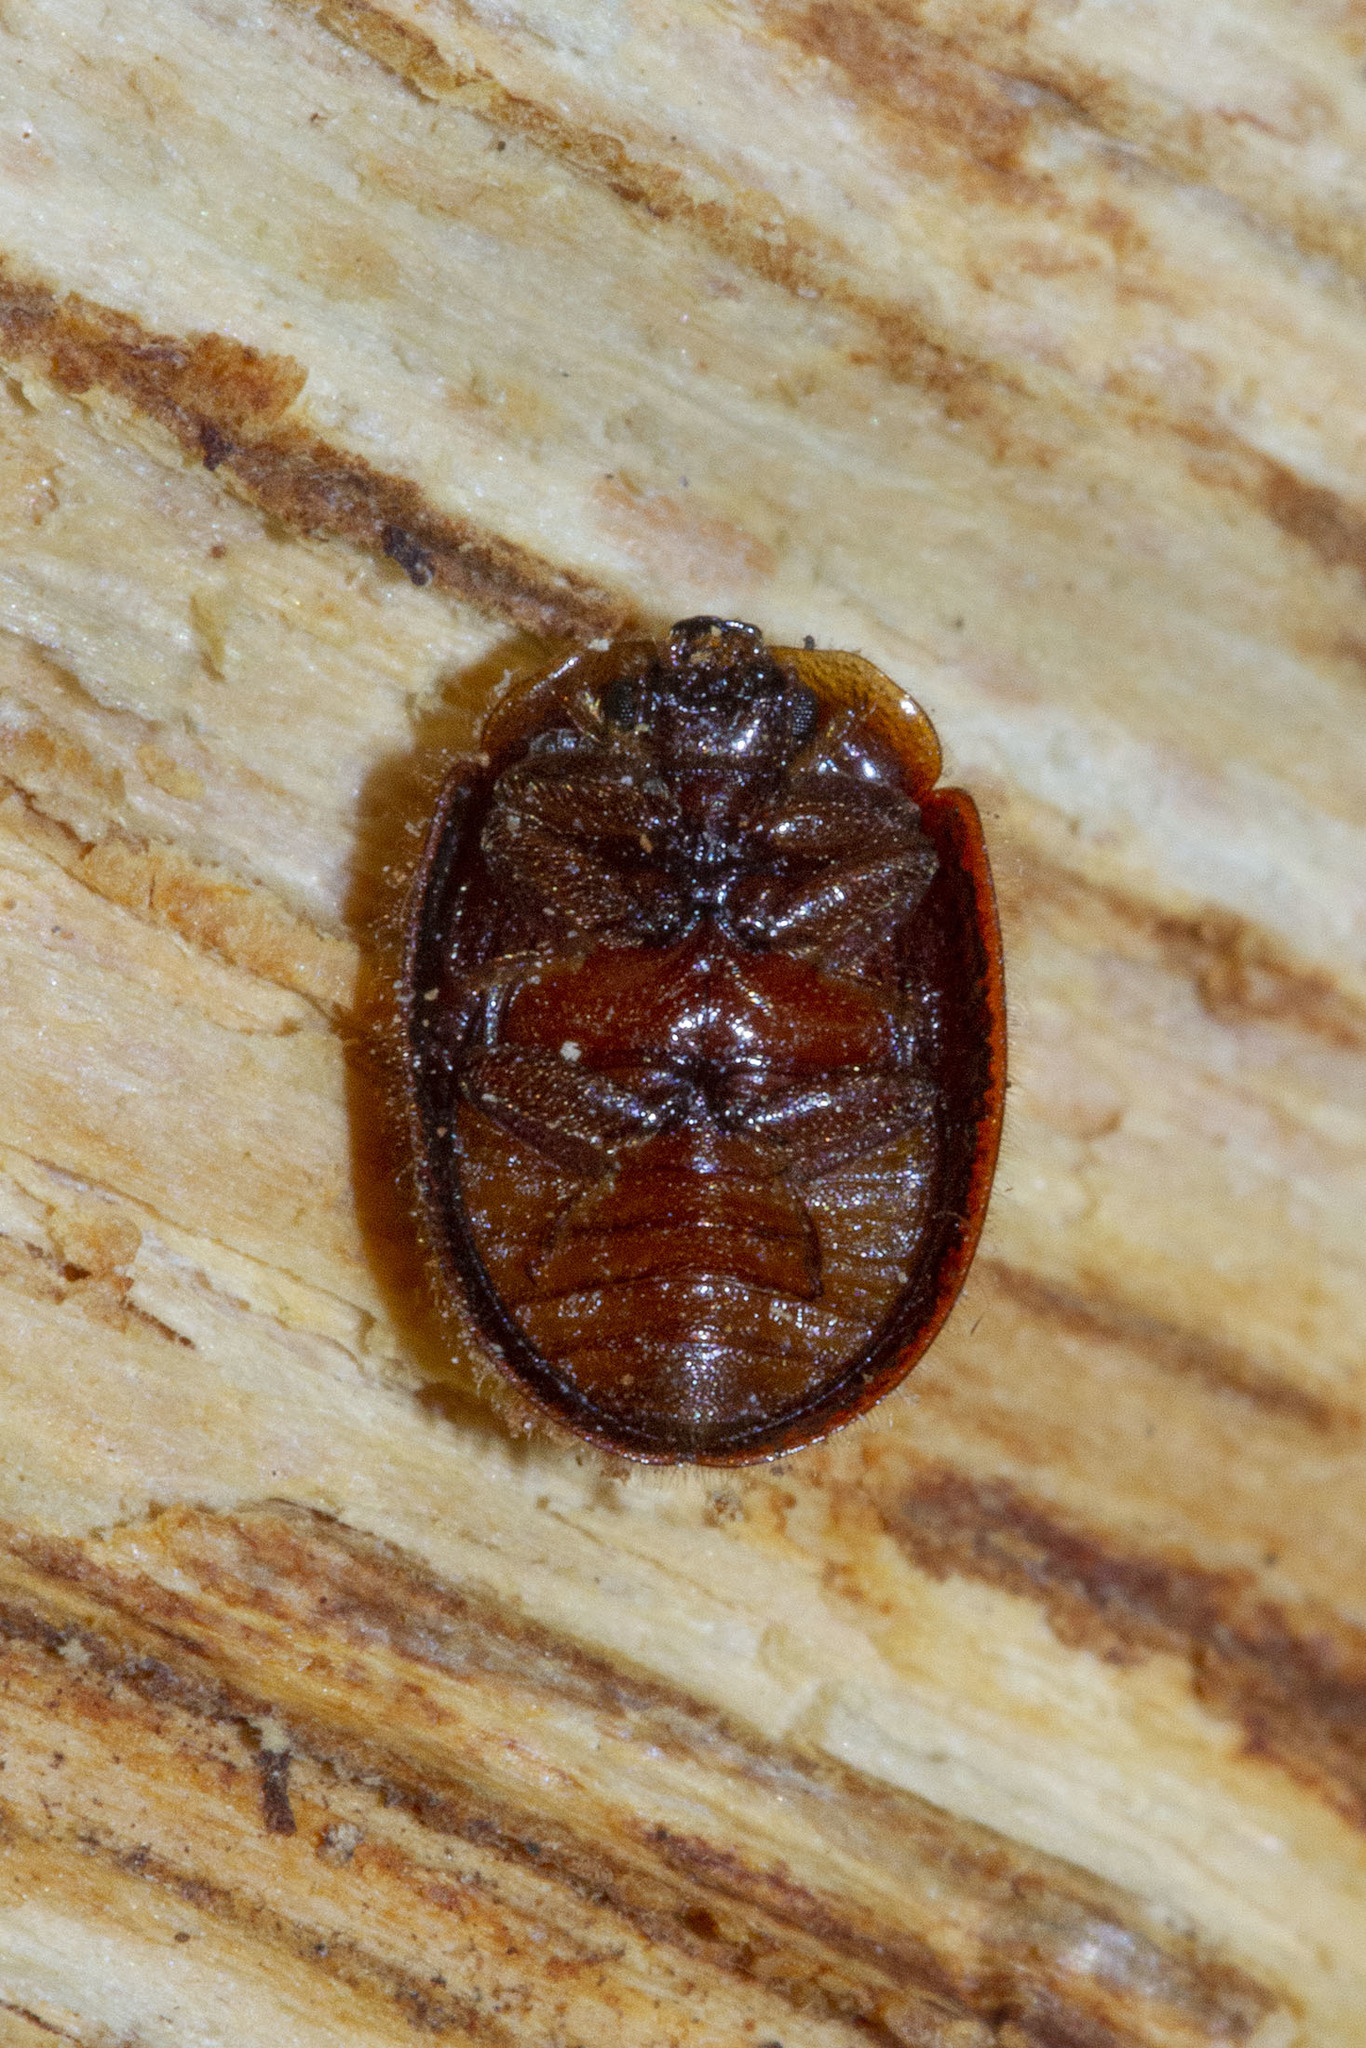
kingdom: Animalia
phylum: Arthropoda
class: Insecta
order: Coleoptera
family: Trogossitidae
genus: Thymalus
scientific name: Thymalus marginicollis
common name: Bark-gnawing beetle
